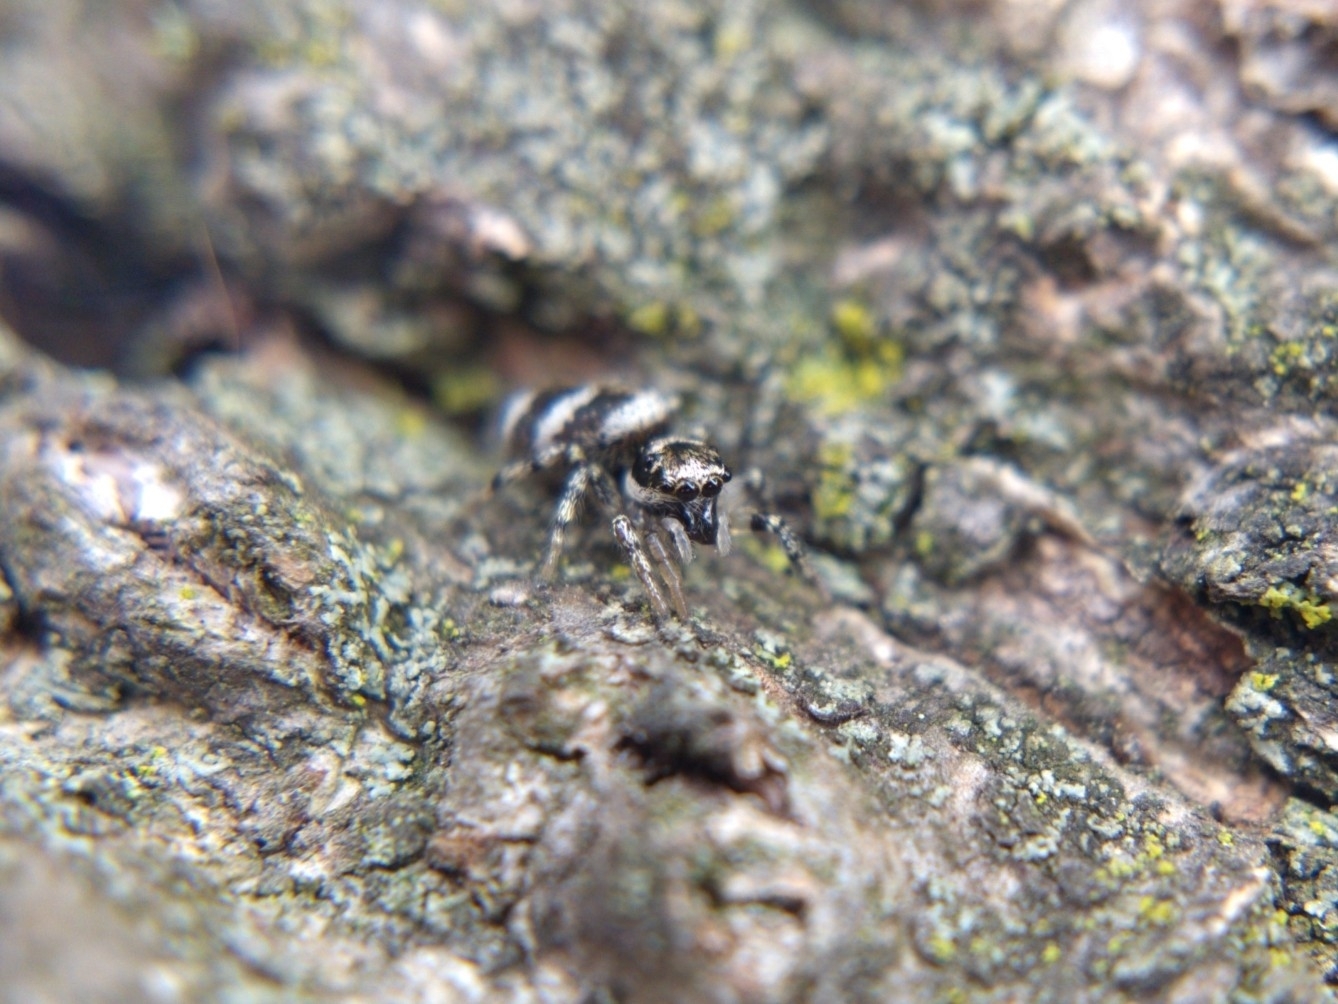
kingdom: Animalia
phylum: Arthropoda
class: Arachnida
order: Araneae
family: Salticidae
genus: Salticus
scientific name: Salticus scenicus
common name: Zebra jumper
